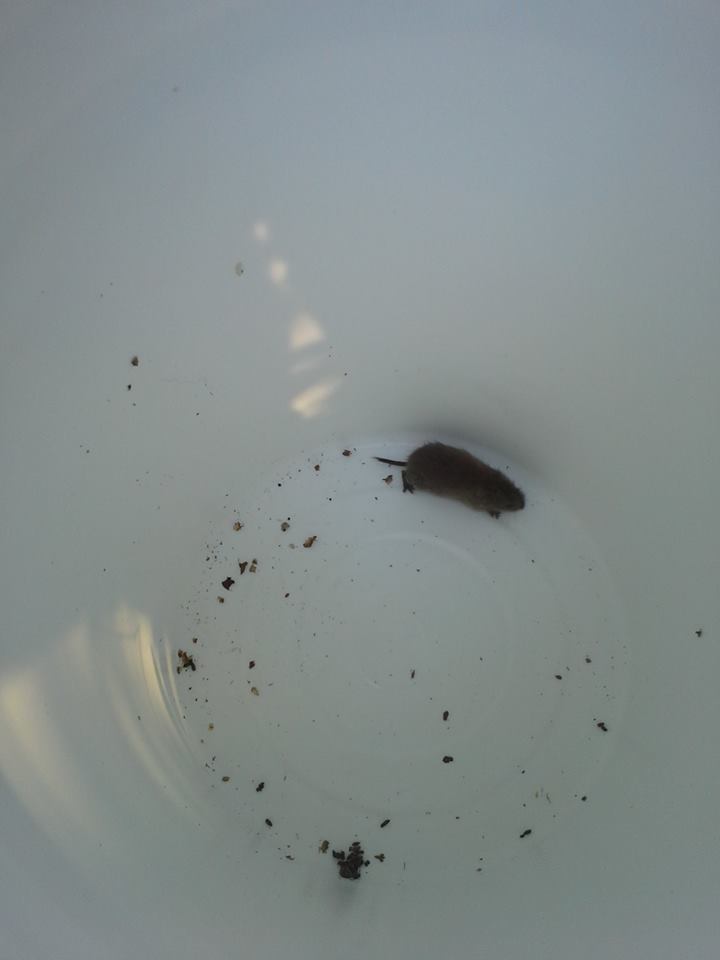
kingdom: Animalia
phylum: Chordata
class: Mammalia
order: Rodentia
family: Cricetidae
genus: Myodes
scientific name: Myodes rutilus
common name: Northern red-backed vole
